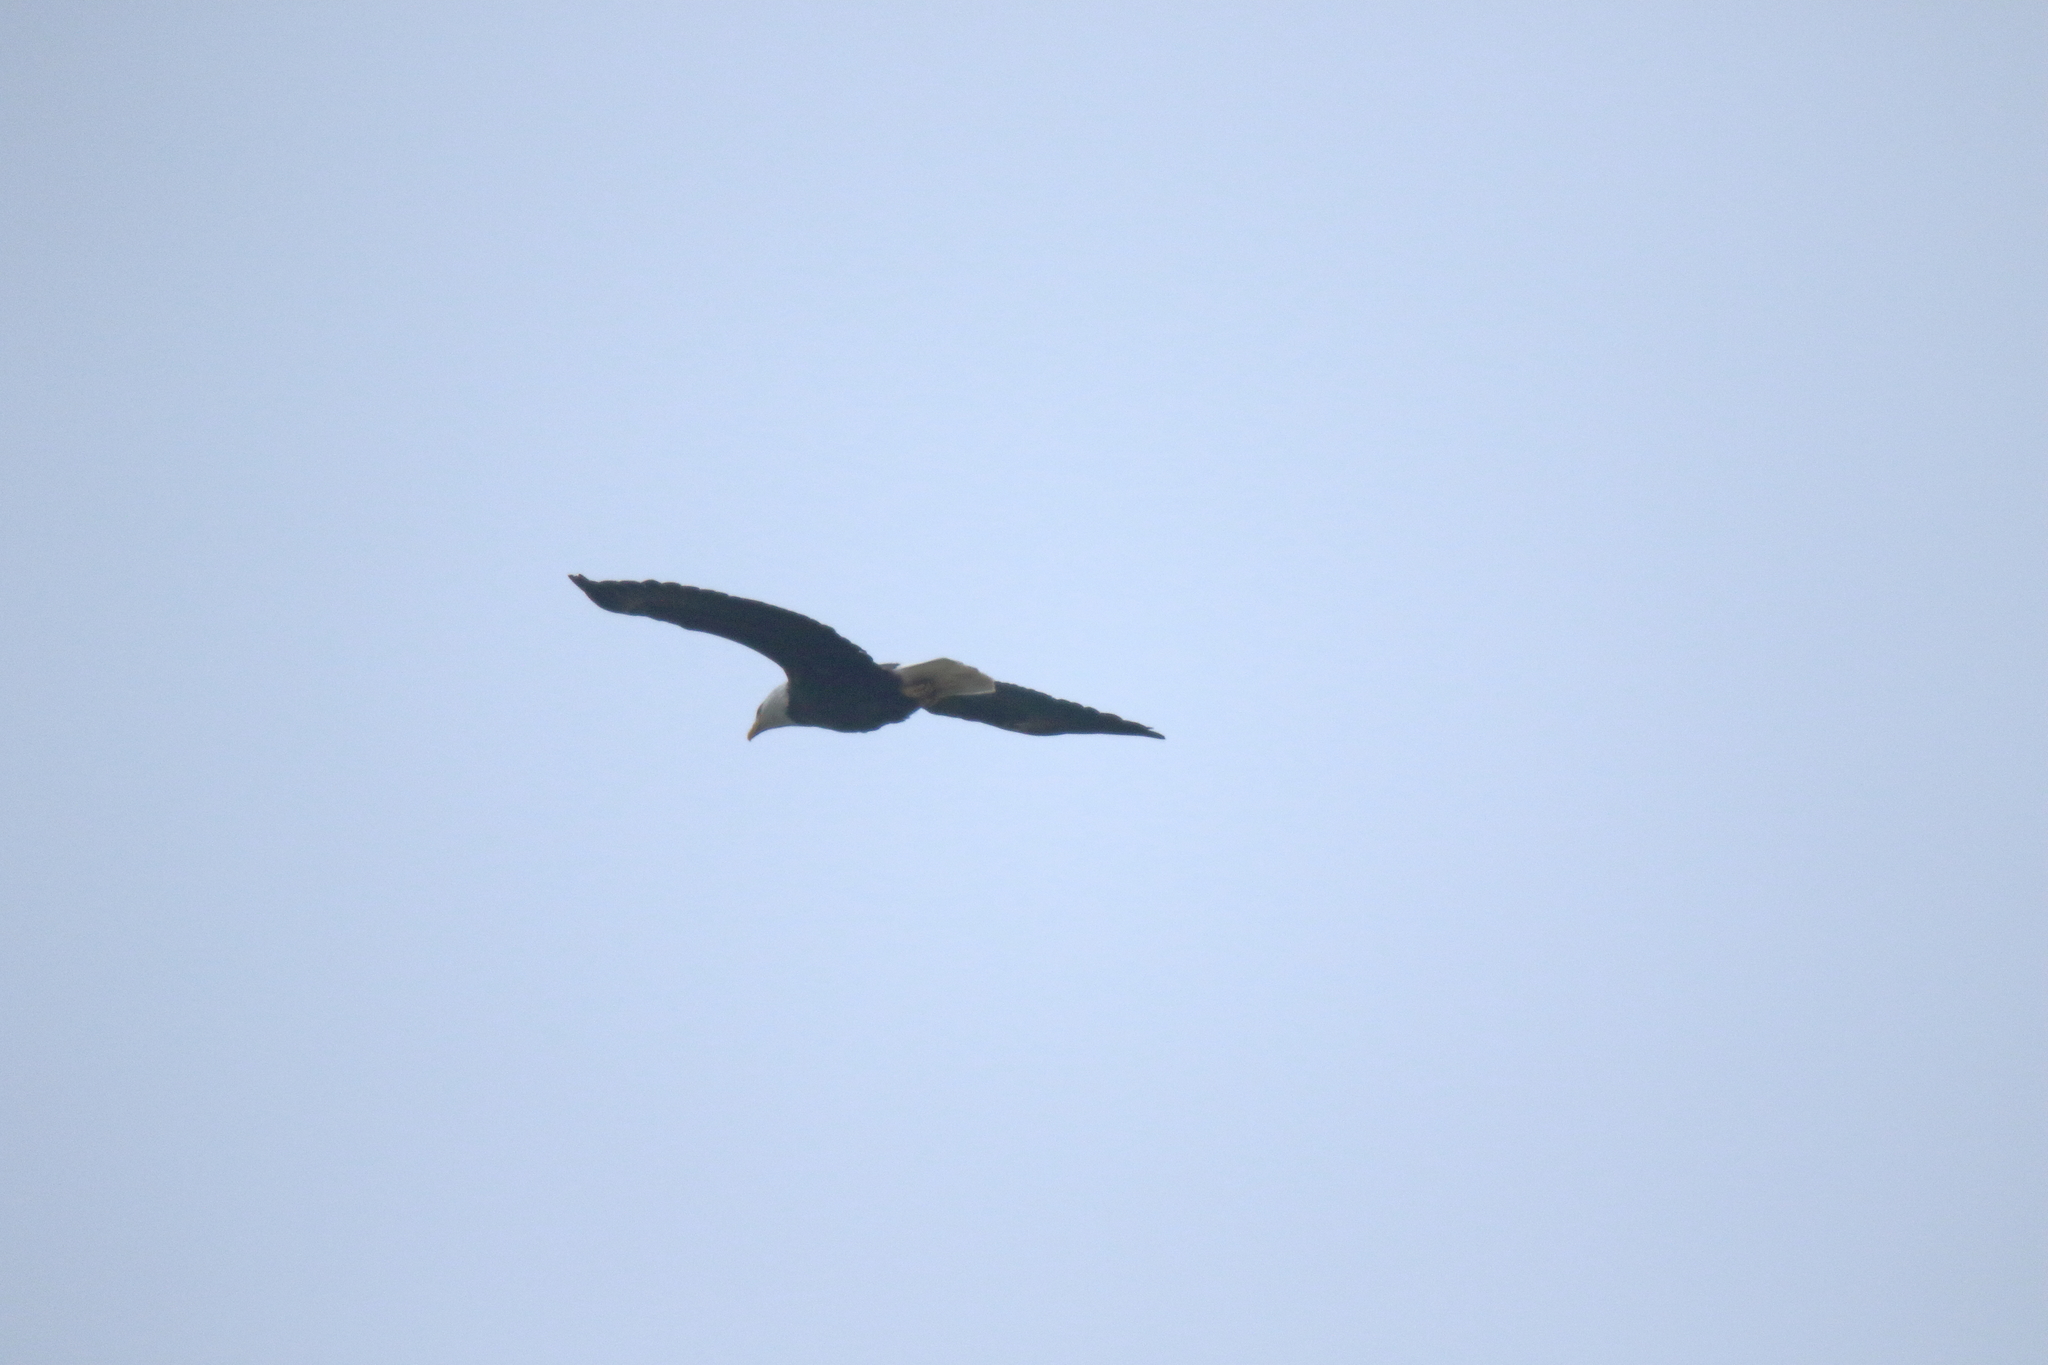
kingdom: Animalia
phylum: Chordata
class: Aves
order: Accipitriformes
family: Accipitridae
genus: Haliaeetus
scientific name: Haliaeetus leucocephalus
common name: Bald eagle
